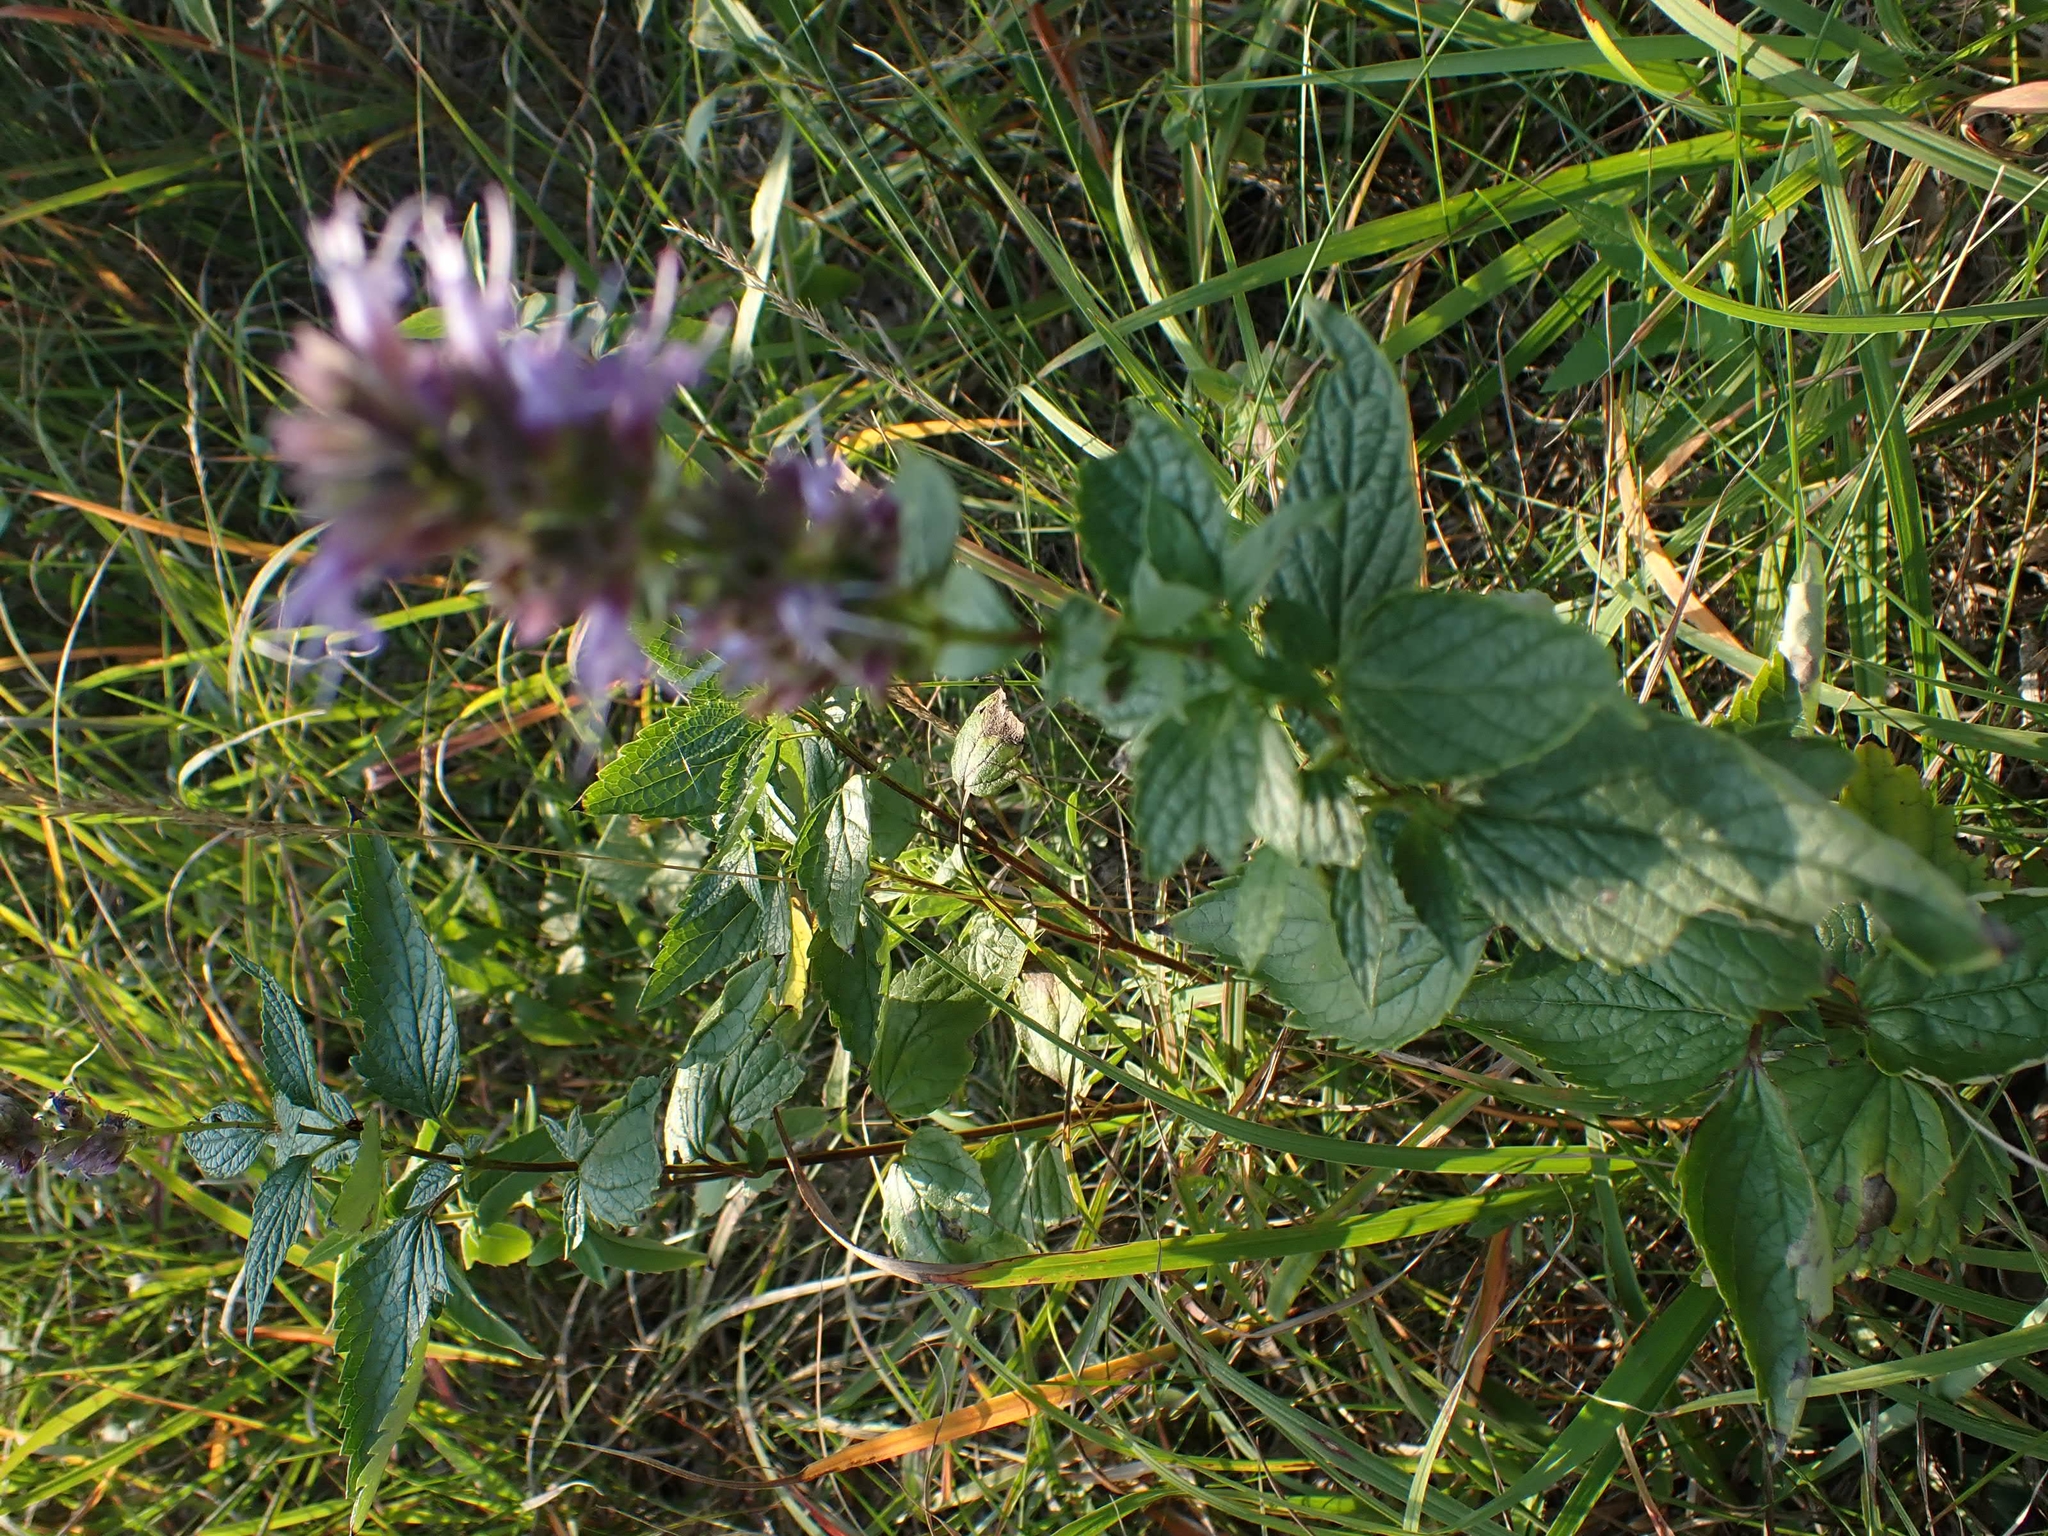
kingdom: Plantae
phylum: Tracheophyta
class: Magnoliopsida
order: Lamiales
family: Lamiaceae
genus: Agastache
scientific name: Agastache foeniculum
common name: Anise hyssop
